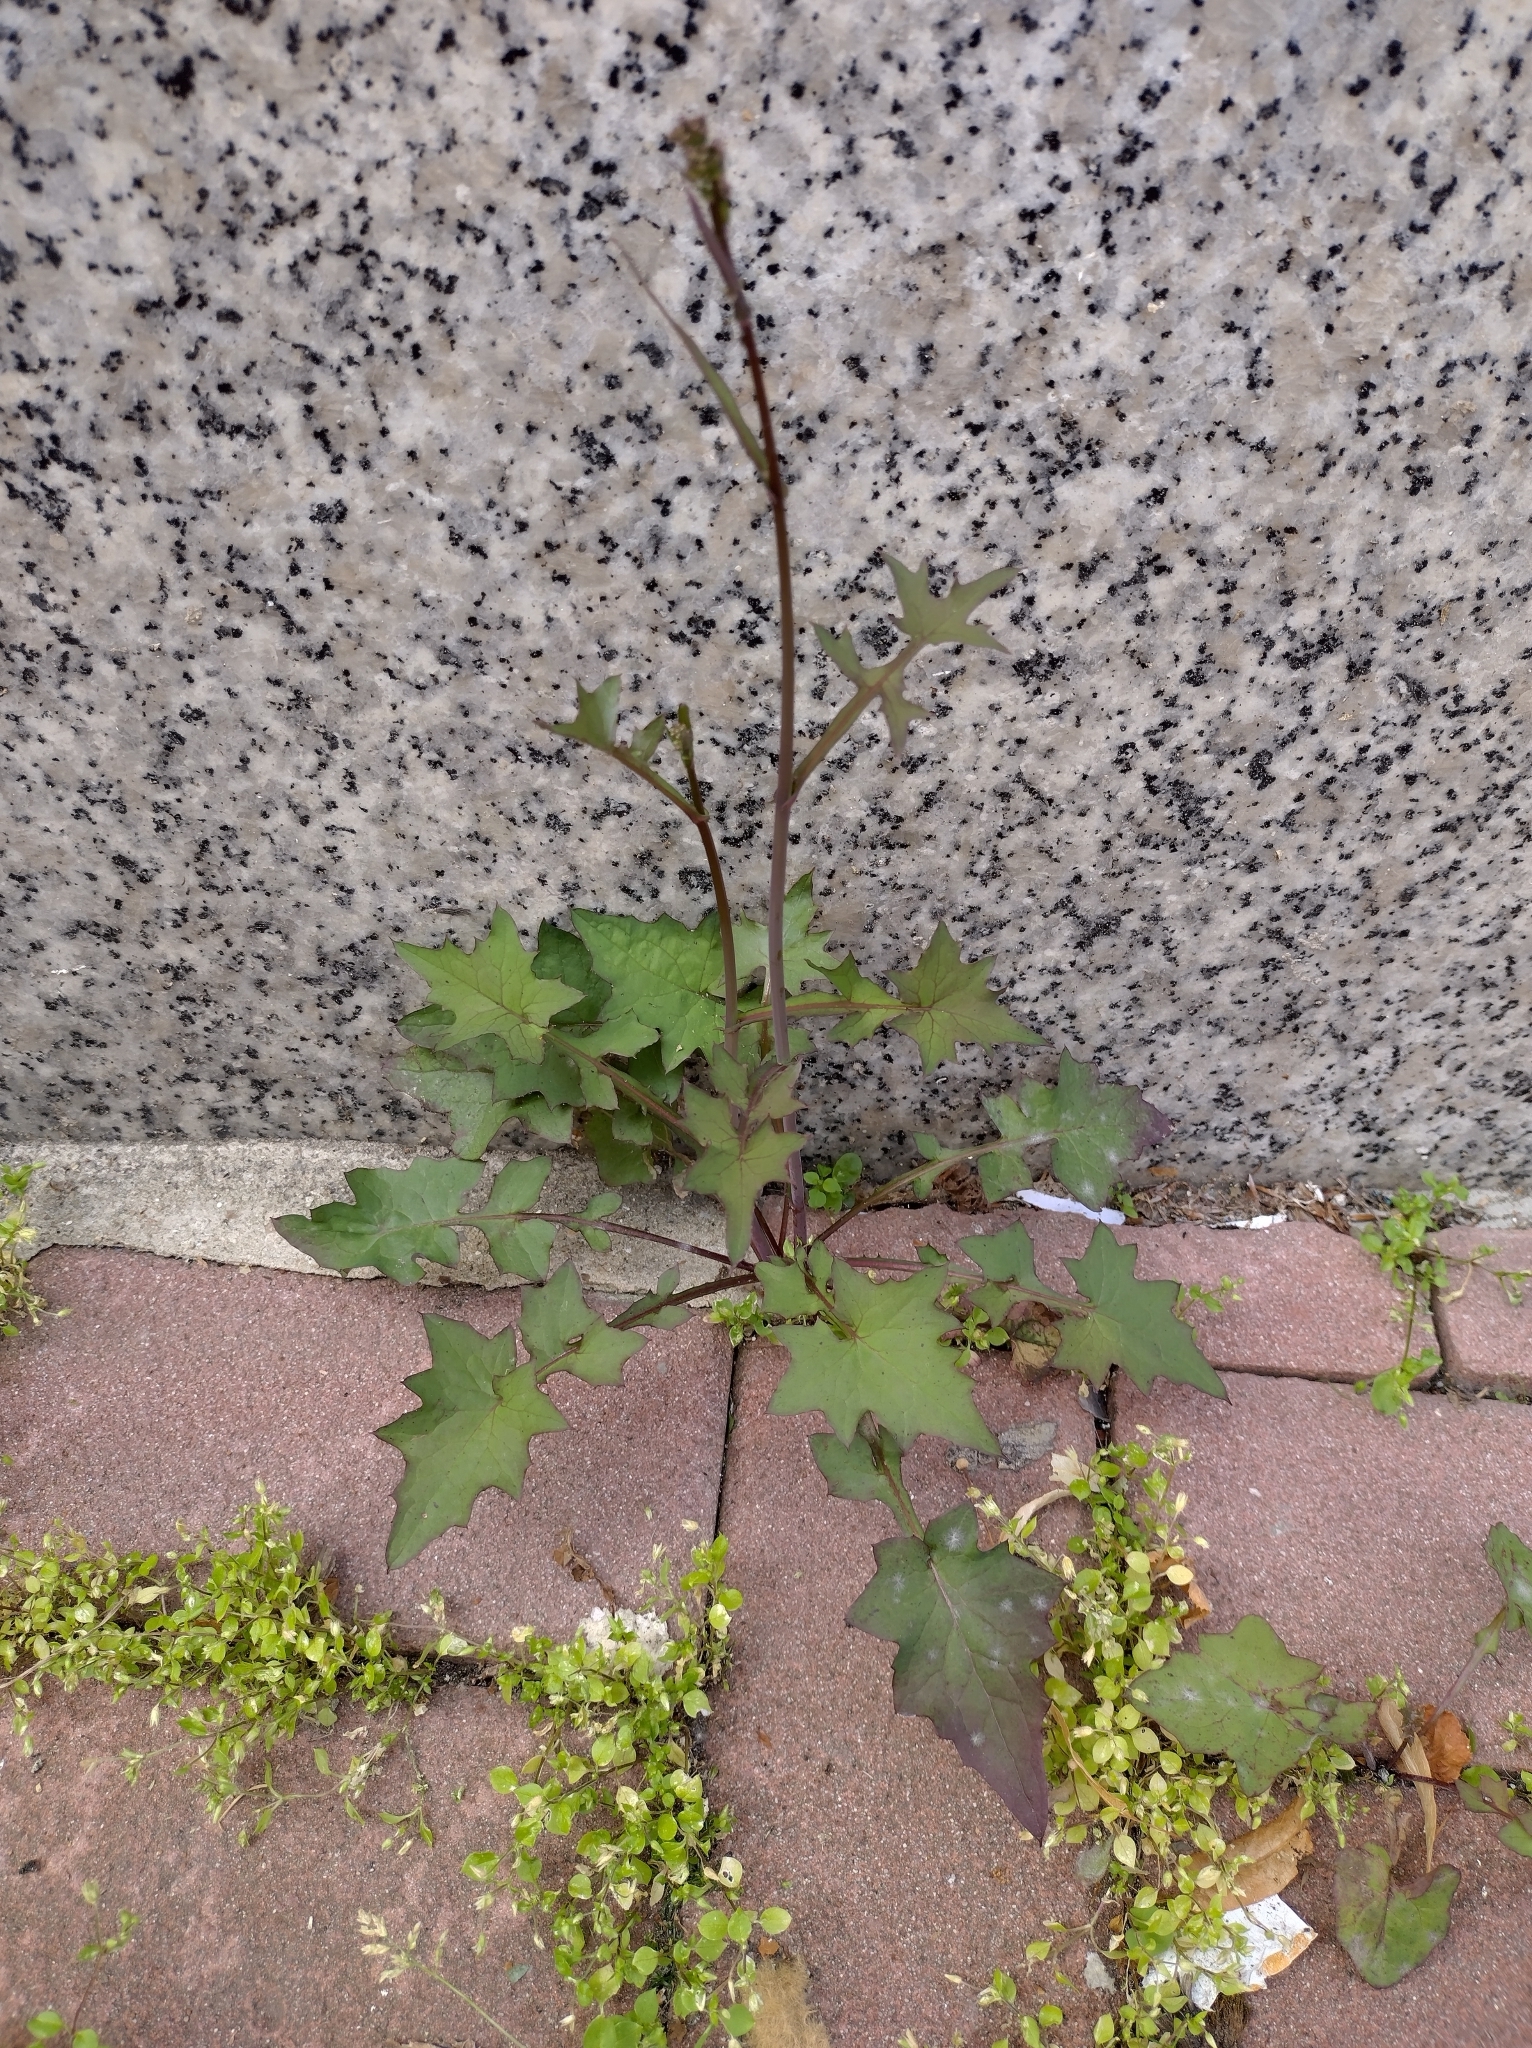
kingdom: Plantae
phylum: Tracheophyta
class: Magnoliopsida
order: Asterales
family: Asteraceae
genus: Mycelis
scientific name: Mycelis muralis
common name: Wall lettuce
